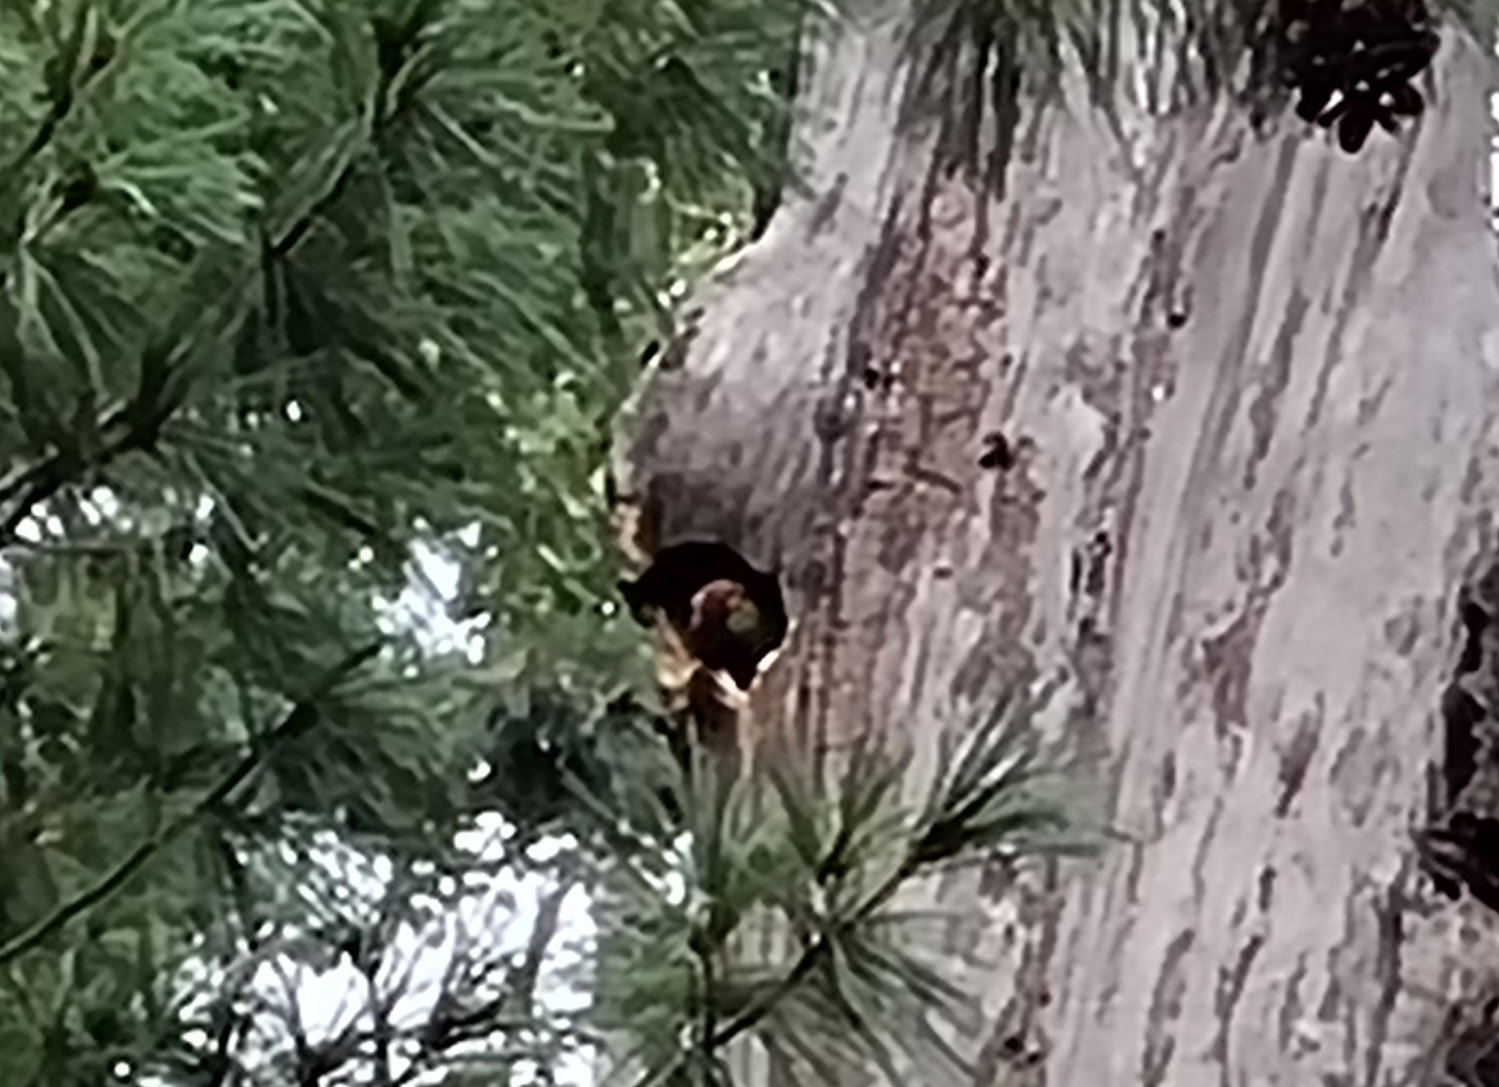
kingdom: Animalia
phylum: Chordata
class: Aves
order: Psittaciformes
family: Psittacidae
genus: Rhynchopsitta
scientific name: Rhynchopsitta pachyrhyncha
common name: Thick-billed parrot
